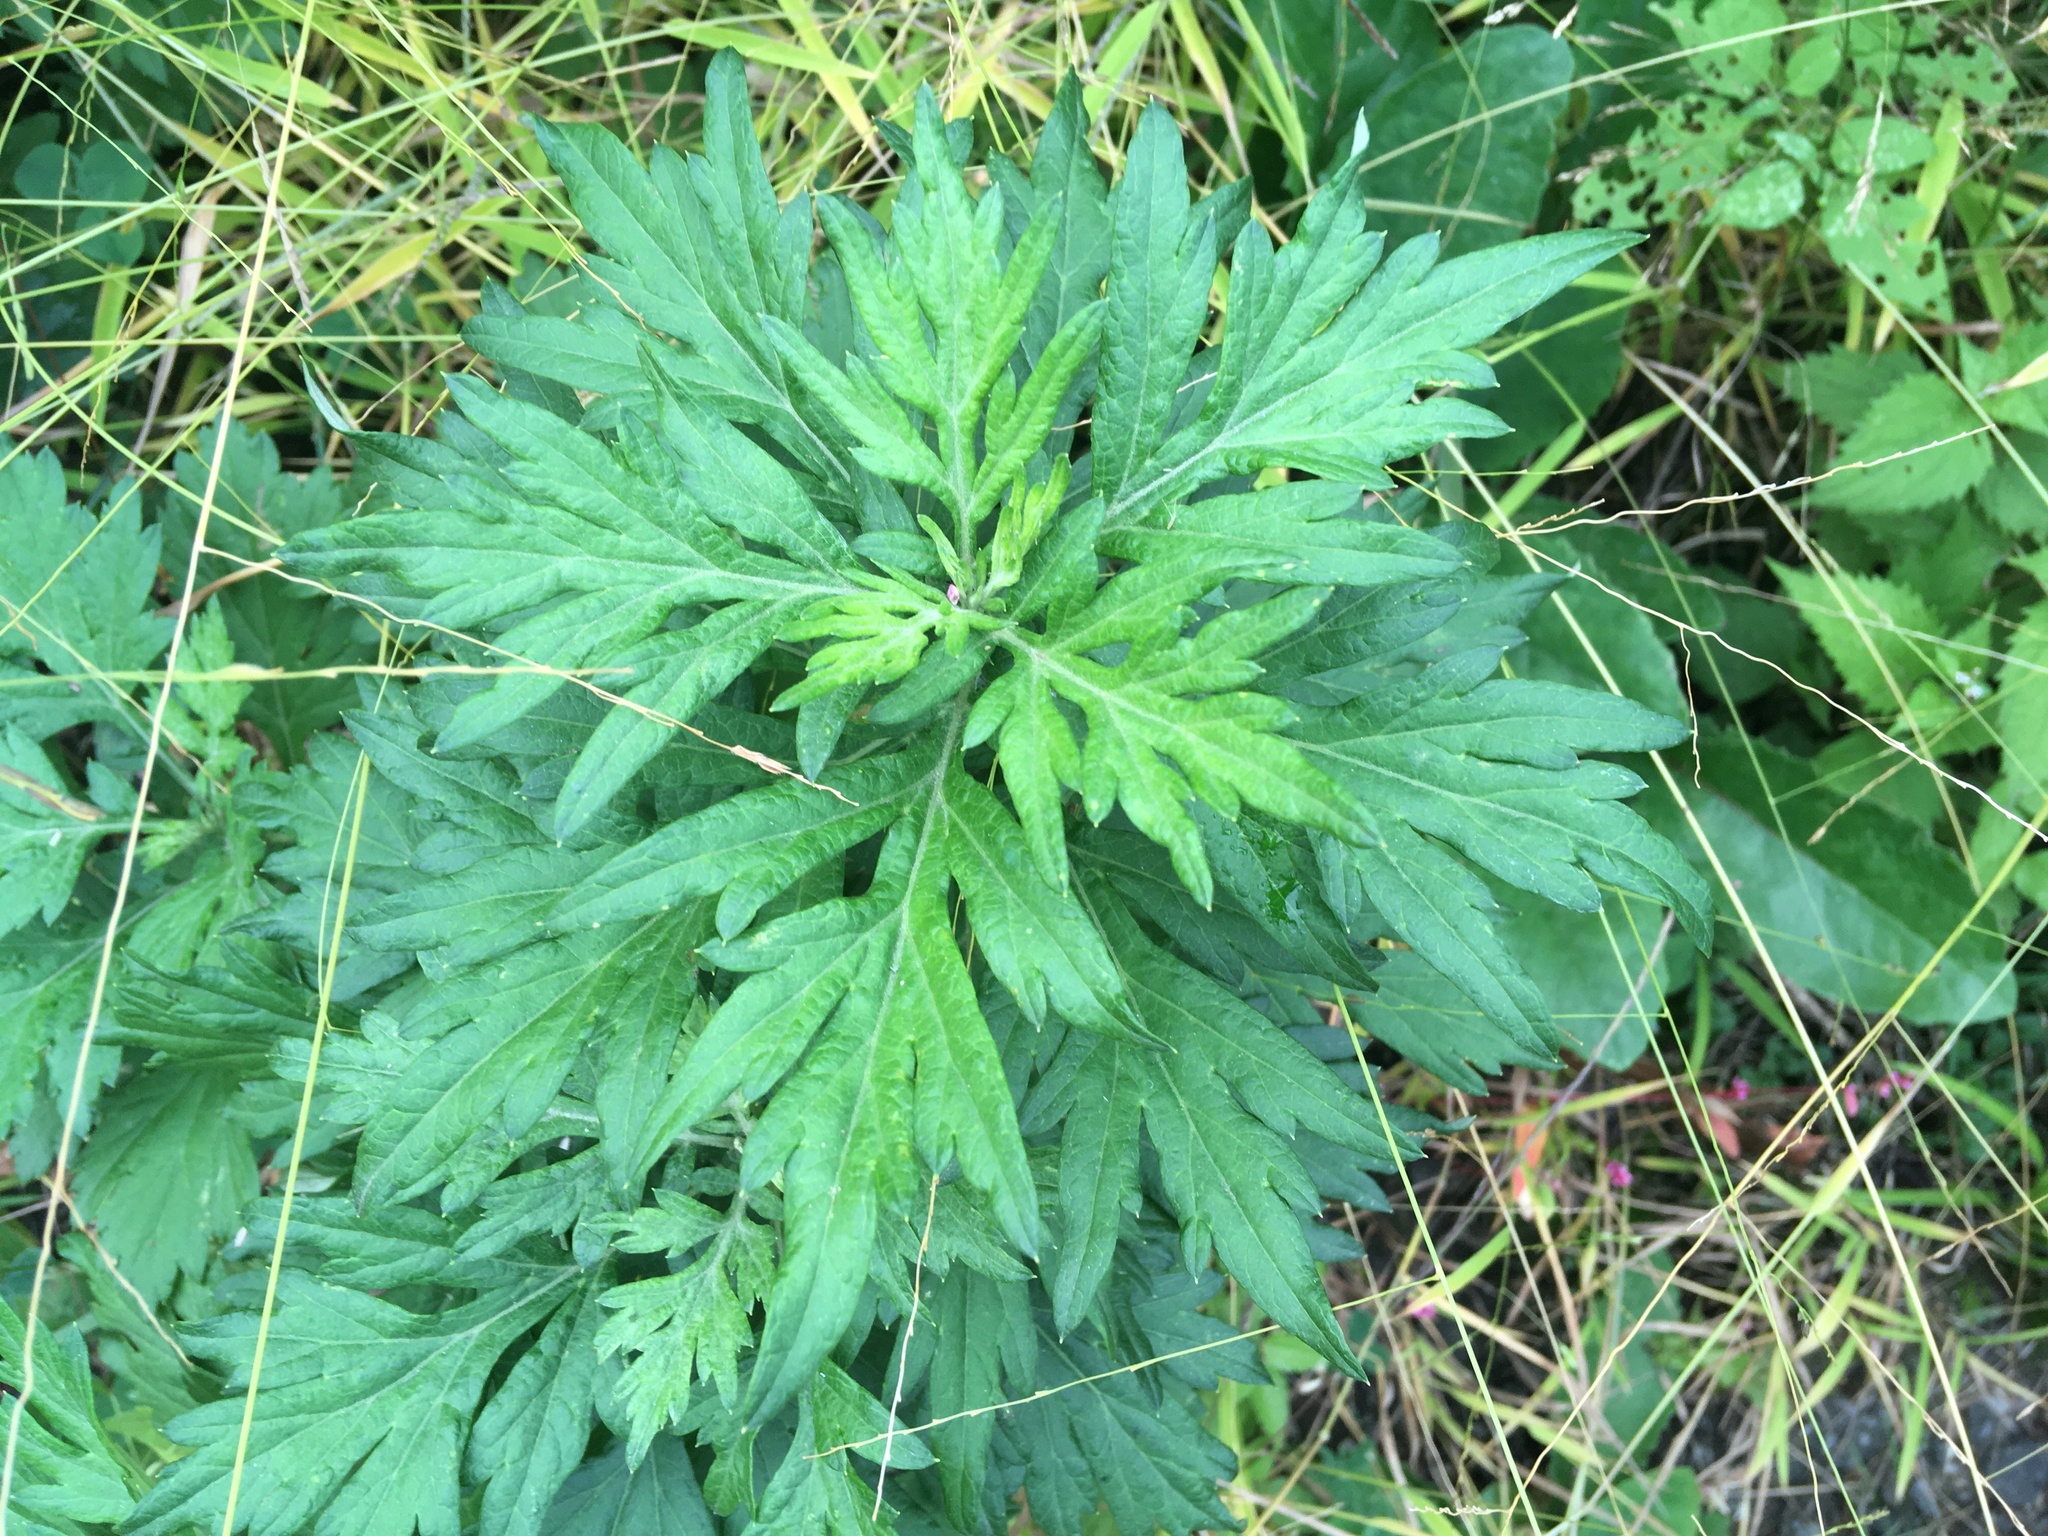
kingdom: Plantae
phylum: Tracheophyta
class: Magnoliopsida
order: Asterales
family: Asteraceae
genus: Artemisia
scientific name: Artemisia vulgaris
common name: Mugwort
